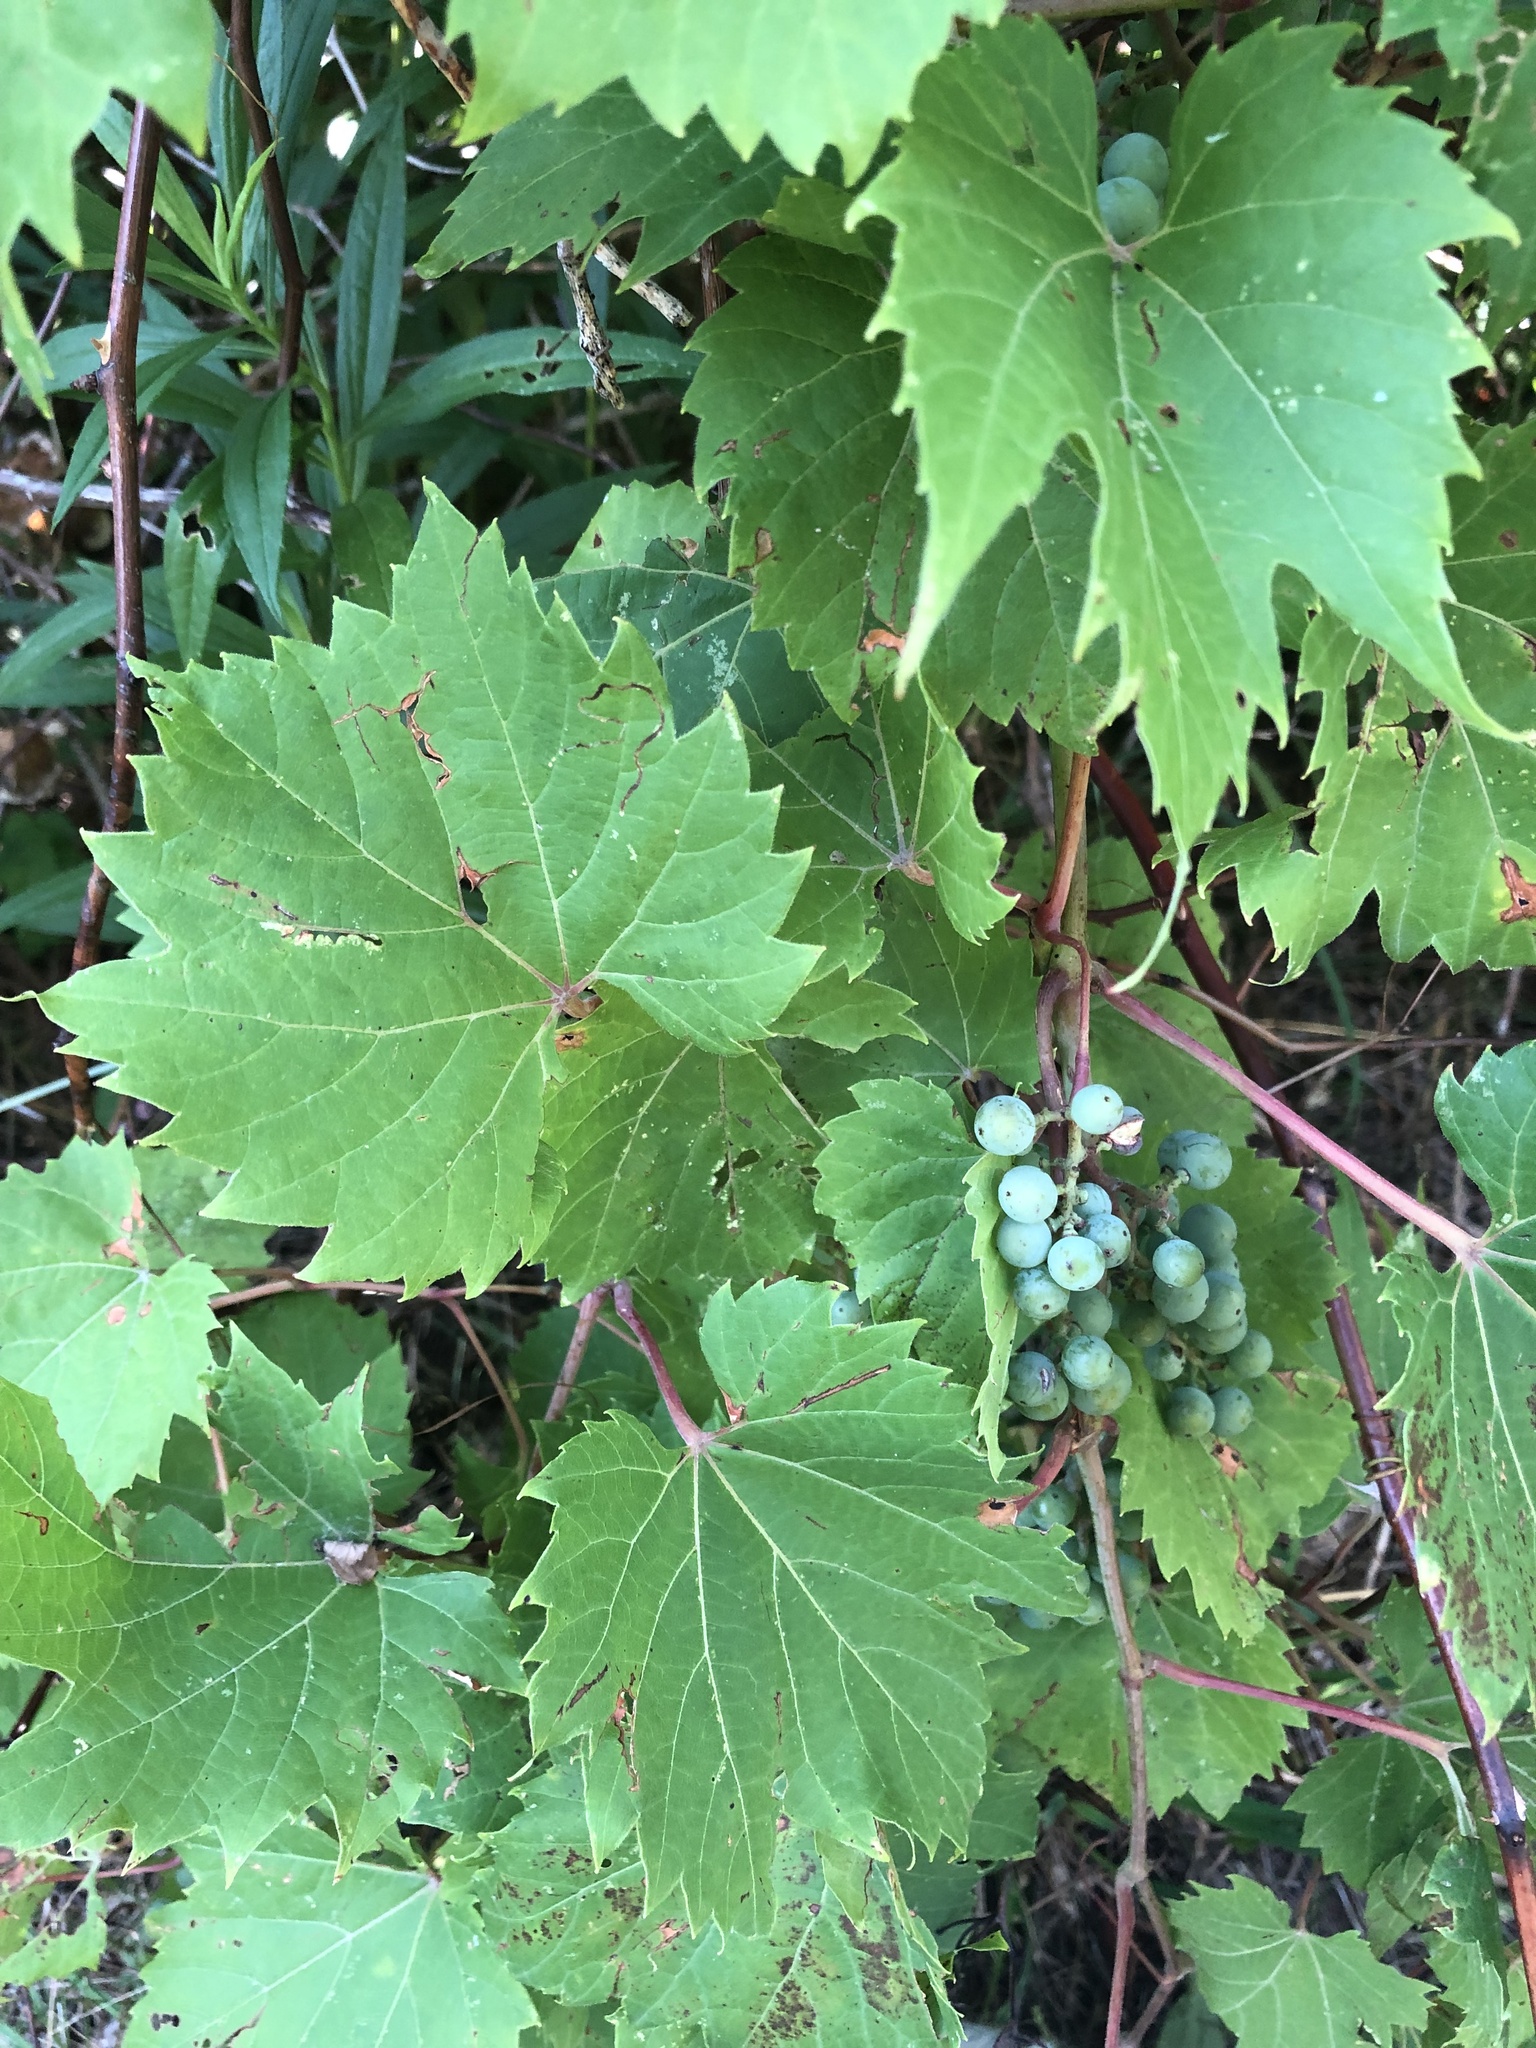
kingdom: Plantae
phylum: Tracheophyta
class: Magnoliopsida
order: Vitales
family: Vitaceae
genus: Vitis
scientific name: Vitis riparia
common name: Frost grape
